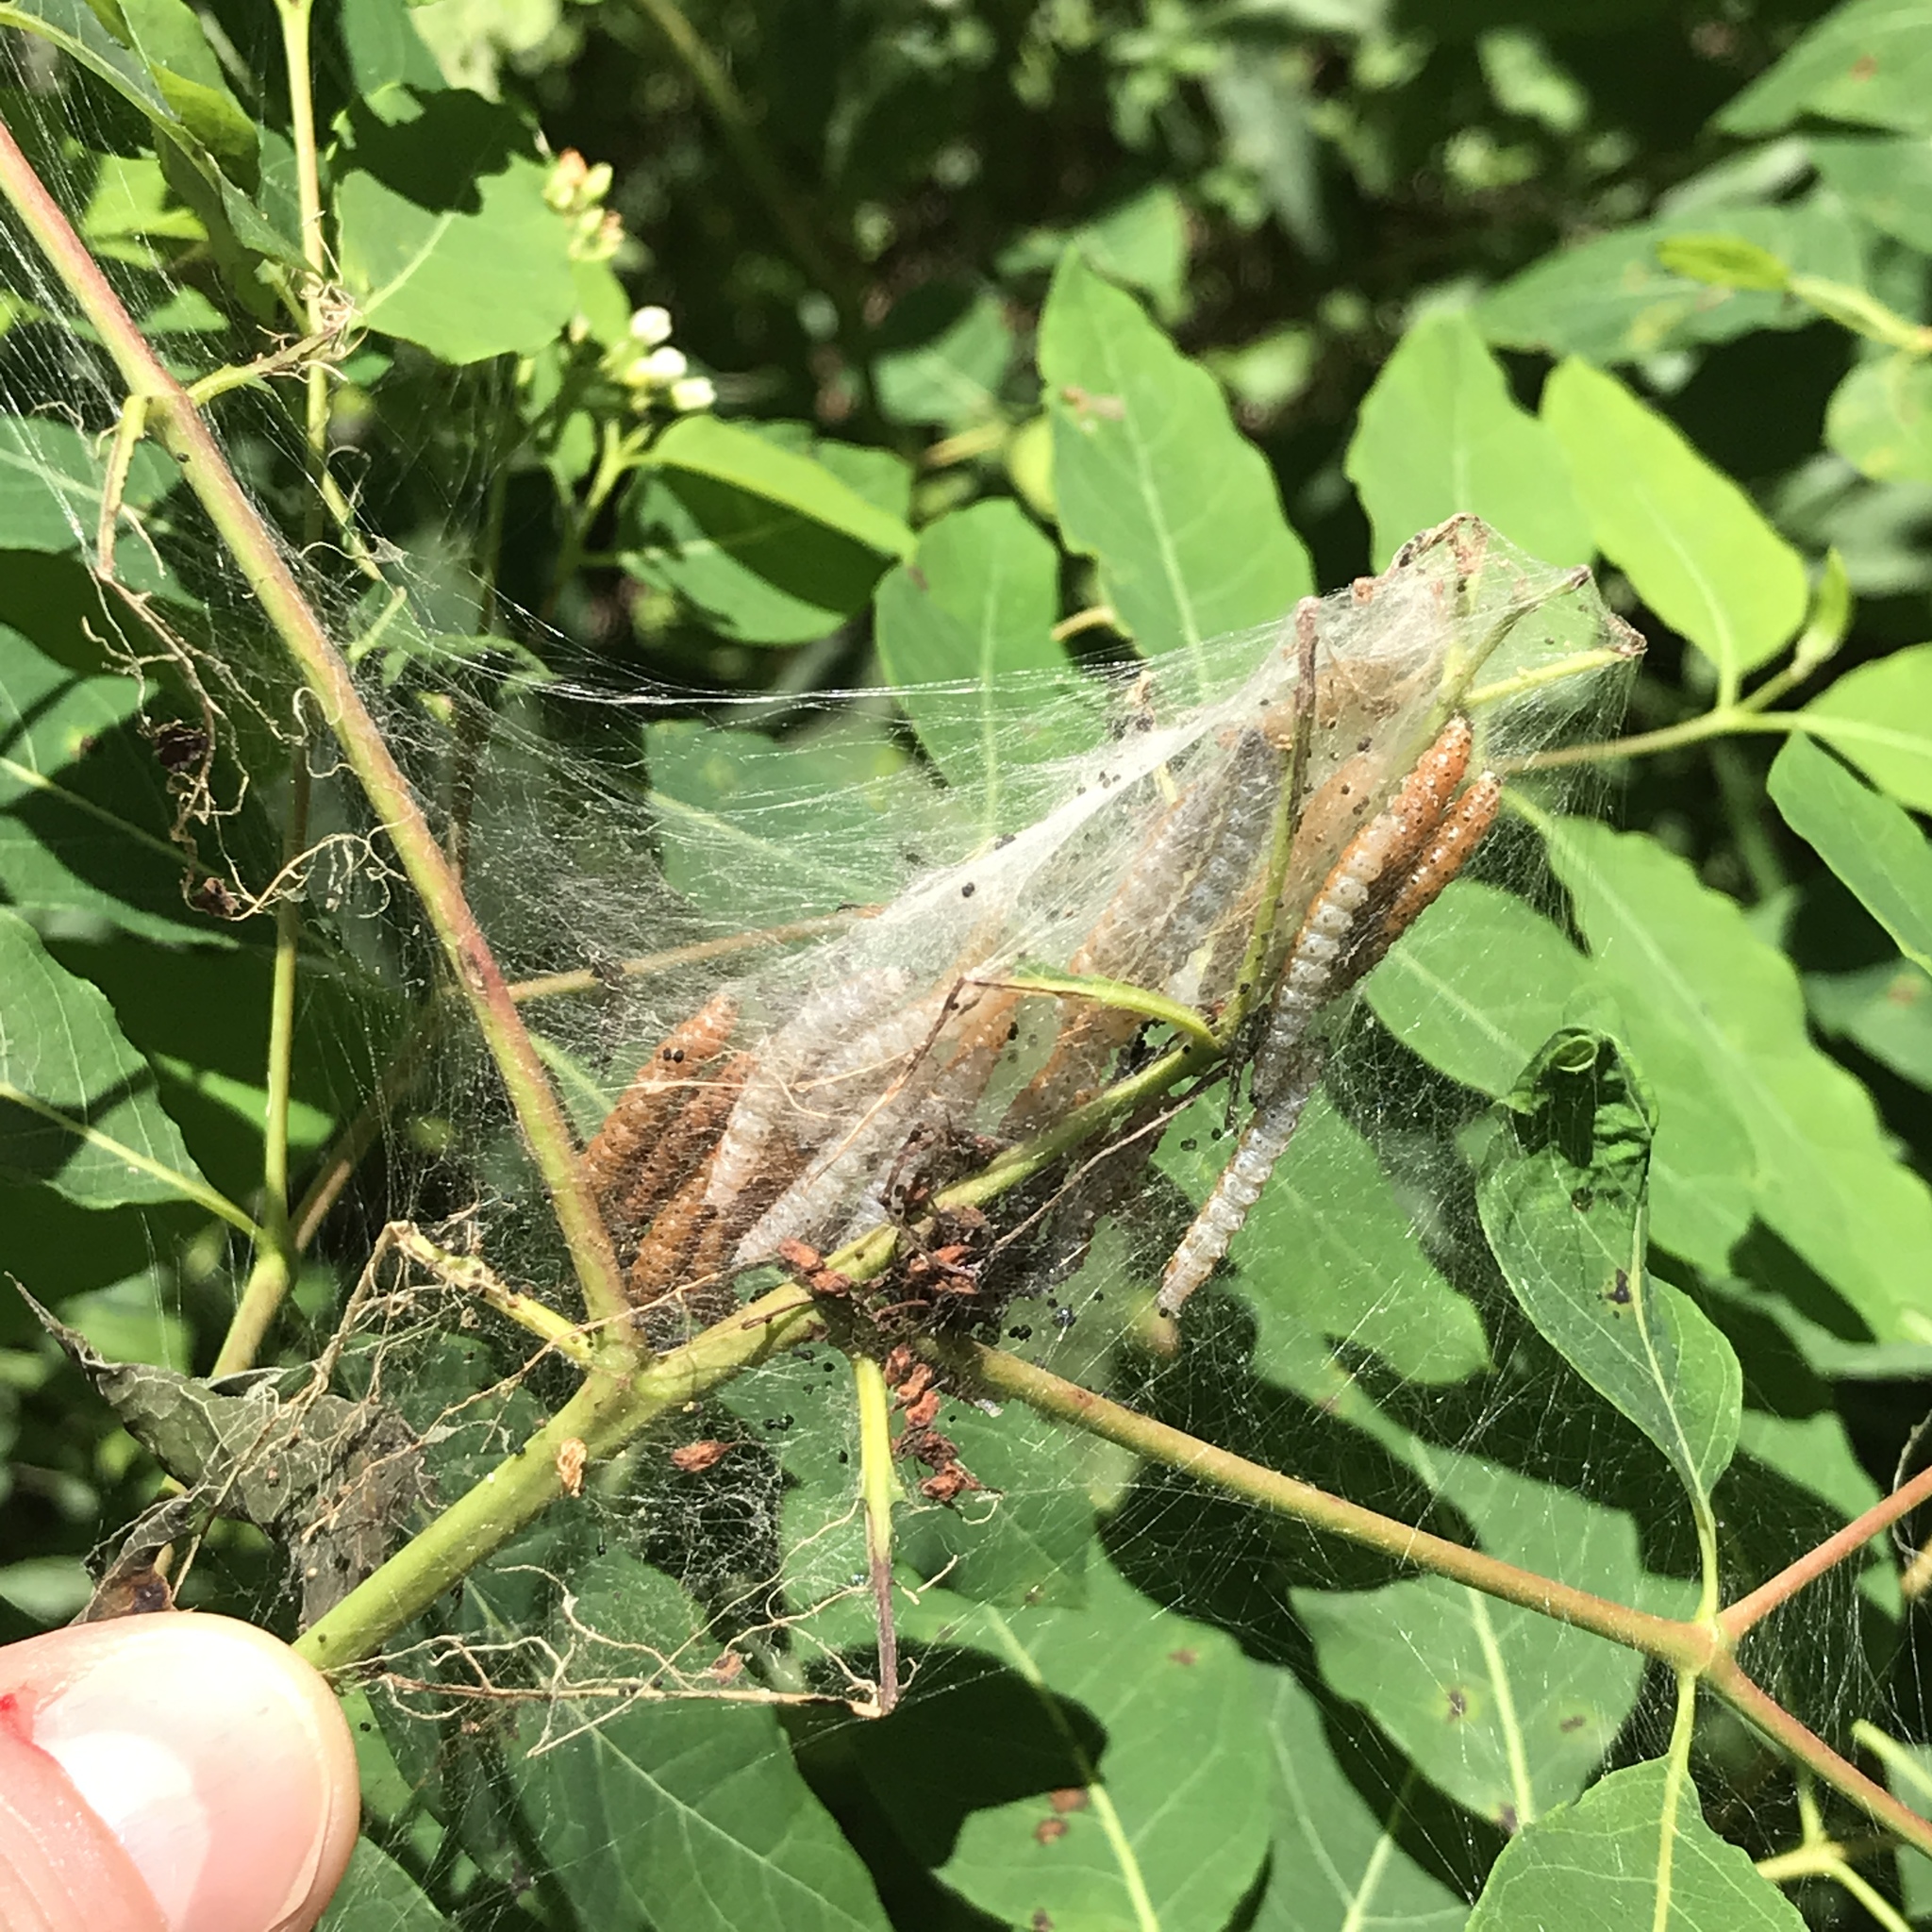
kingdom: Animalia
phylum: Arthropoda
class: Insecta
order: Lepidoptera
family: Crambidae
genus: Saucrobotys
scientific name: Saucrobotys futilalis
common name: Dogbane saucrobotys moth
